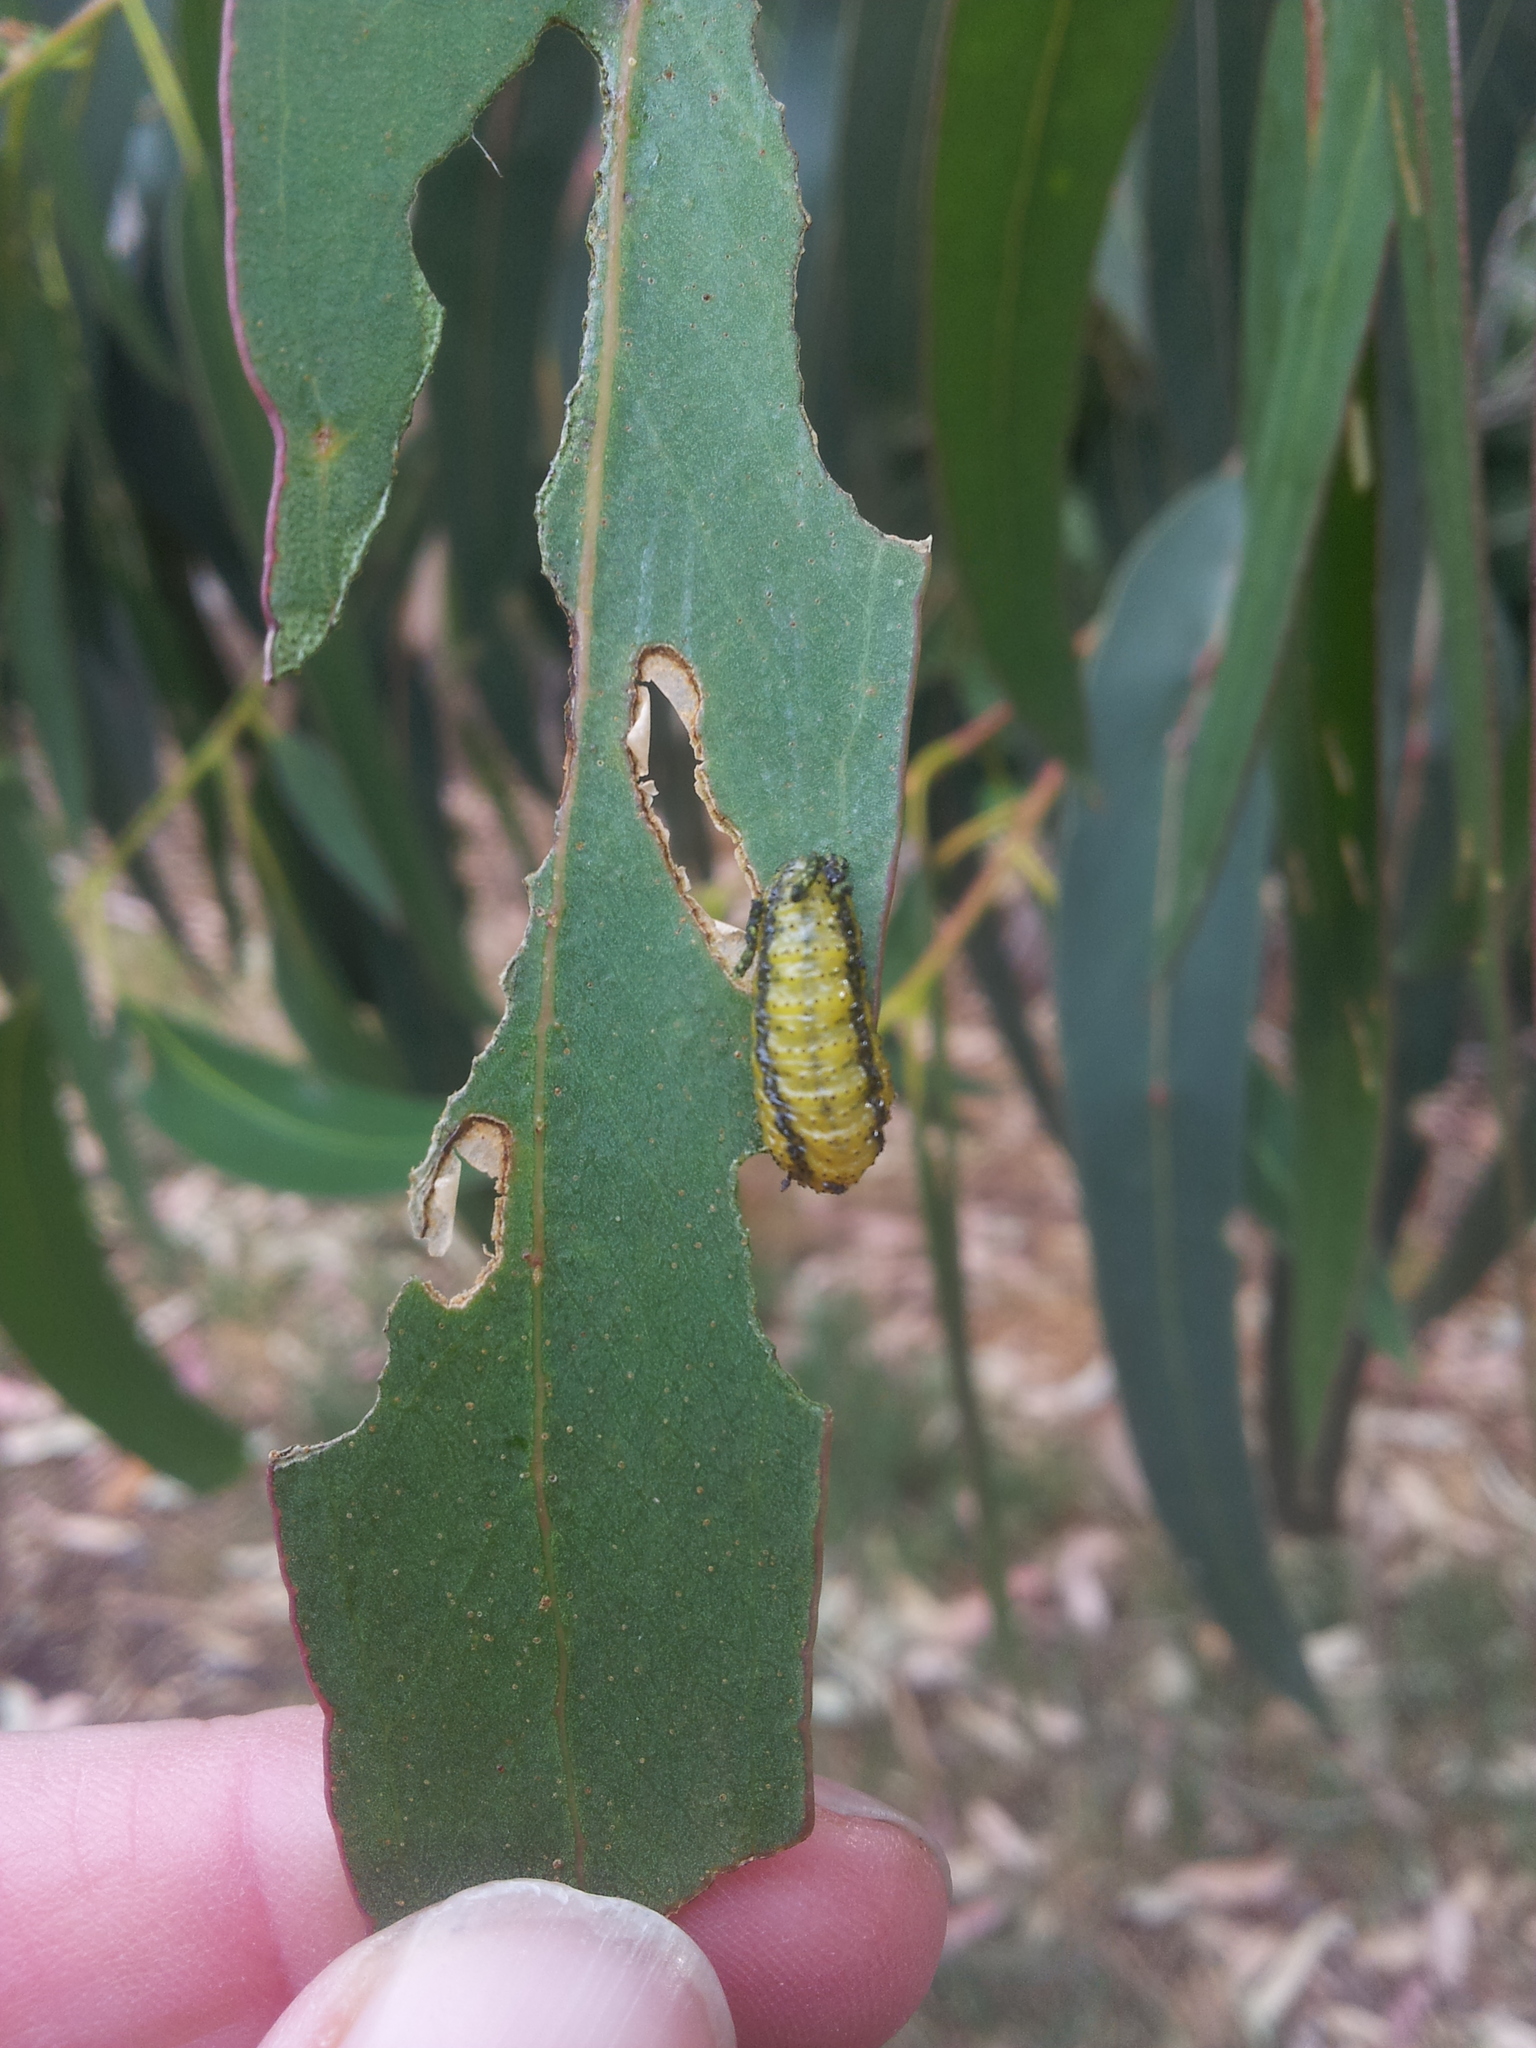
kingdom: Animalia
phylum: Arthropoda
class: Insecta
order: Coleoptera
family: Curculionidae
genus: Gonipterus
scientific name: Gonipterus platensis
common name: Eucalyptus snout beetle
